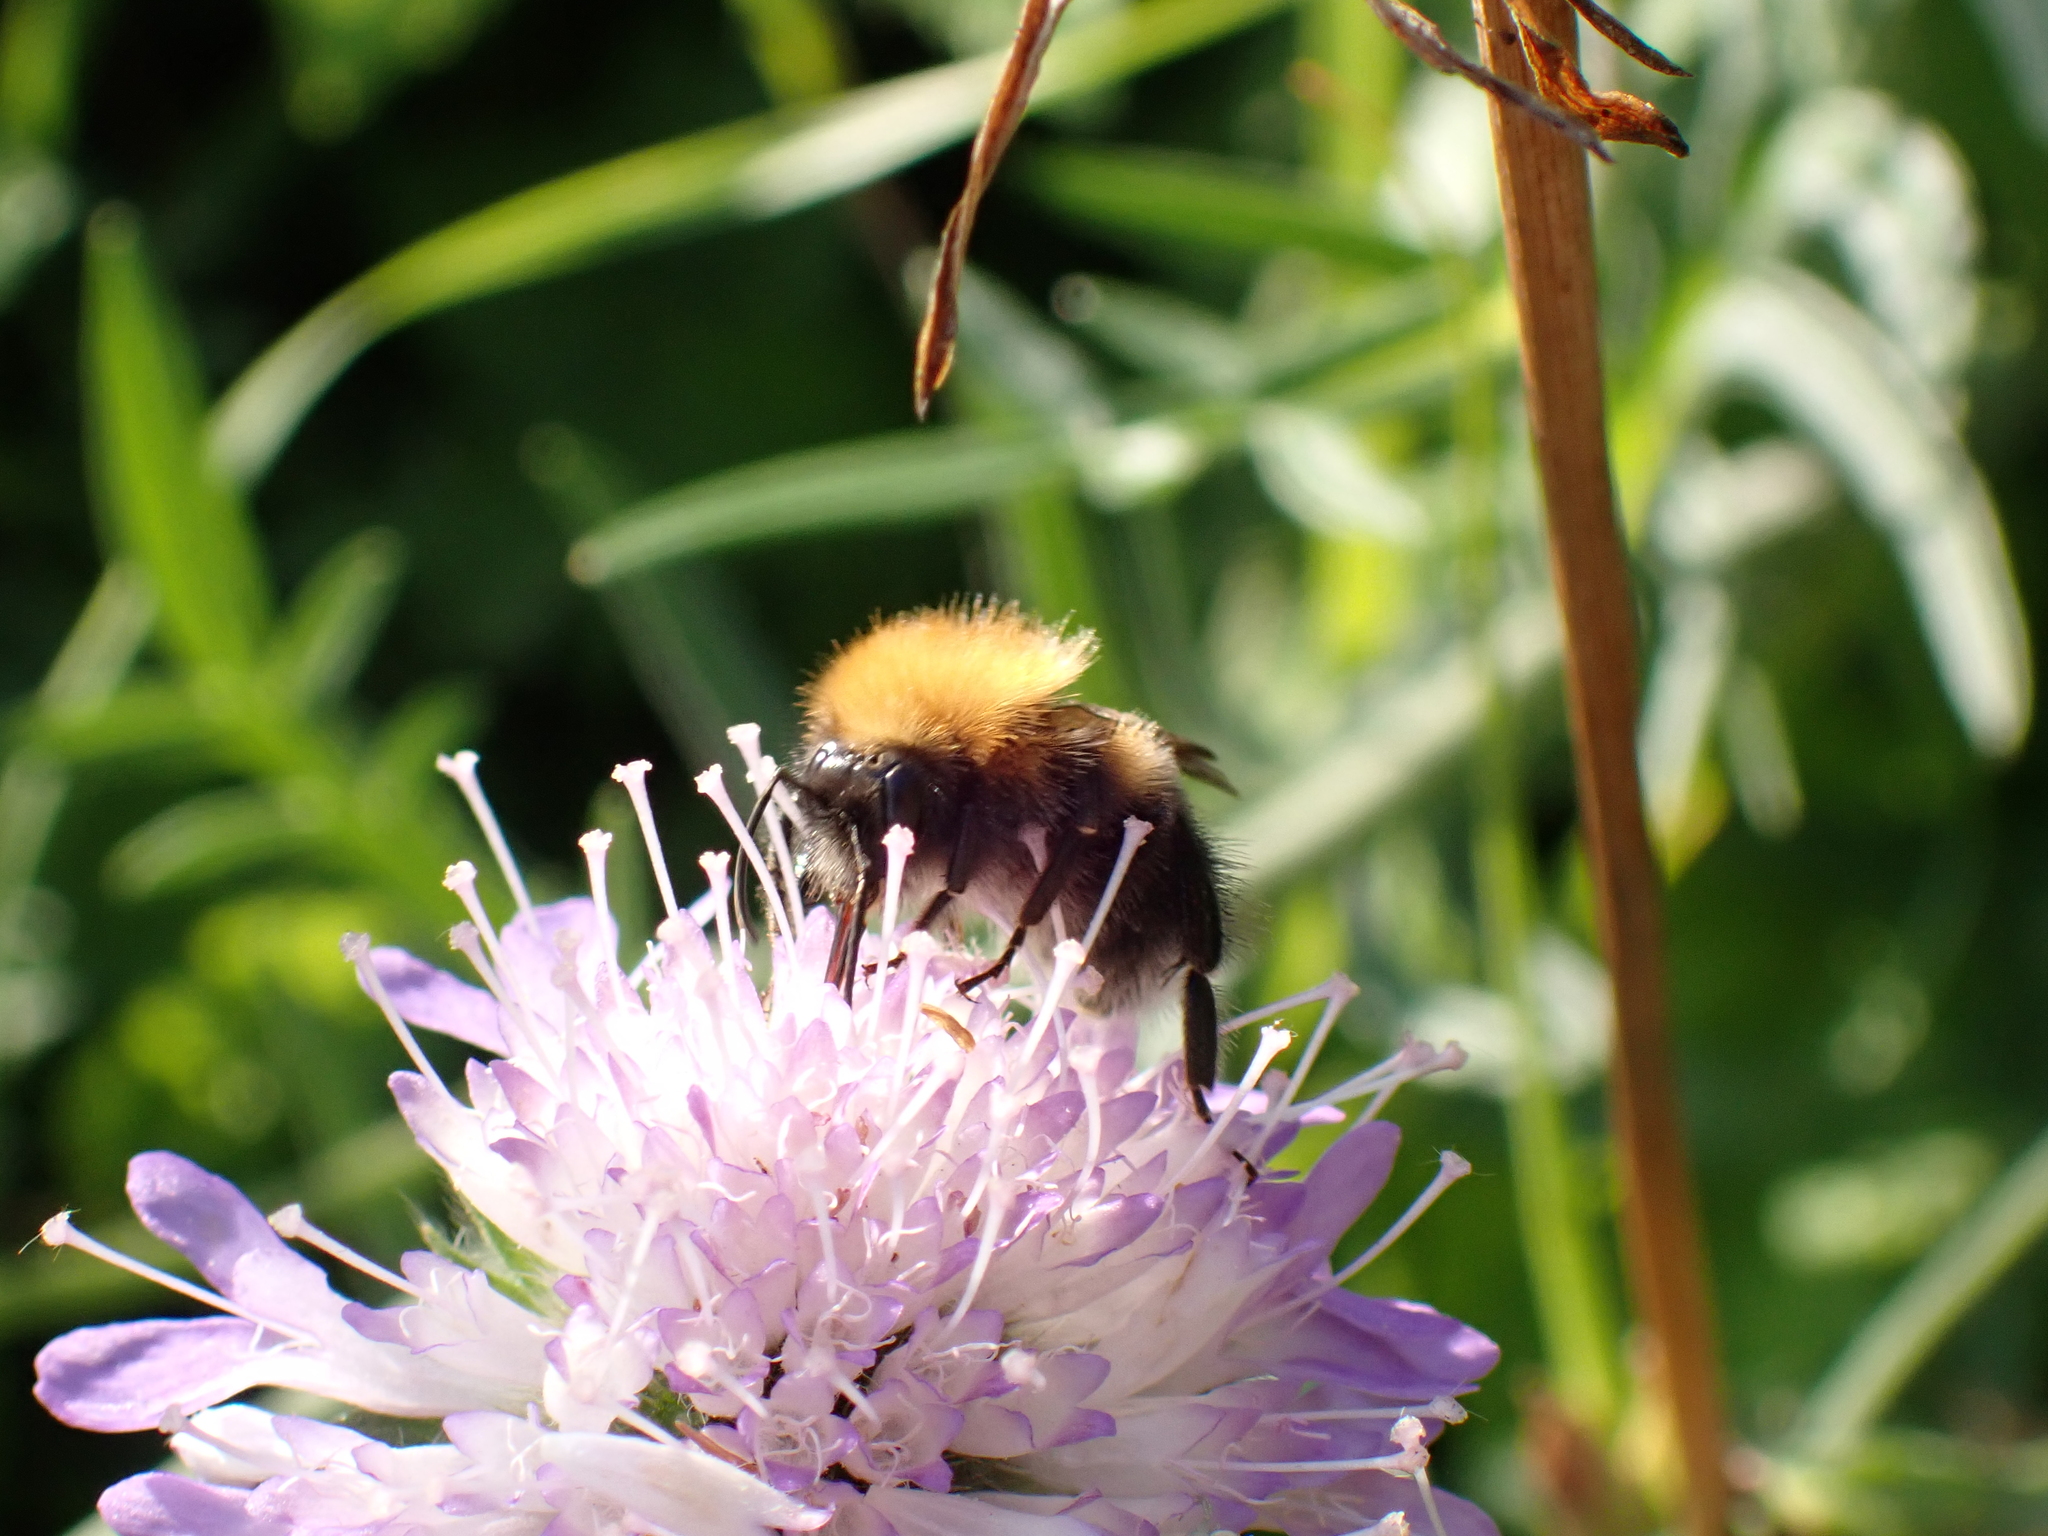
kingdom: Animalia
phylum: Arthropoda
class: Insecta
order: Hymenoptera
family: Apidae
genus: Bombus
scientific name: Bombus hypnorum
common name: New garden bumblebee
